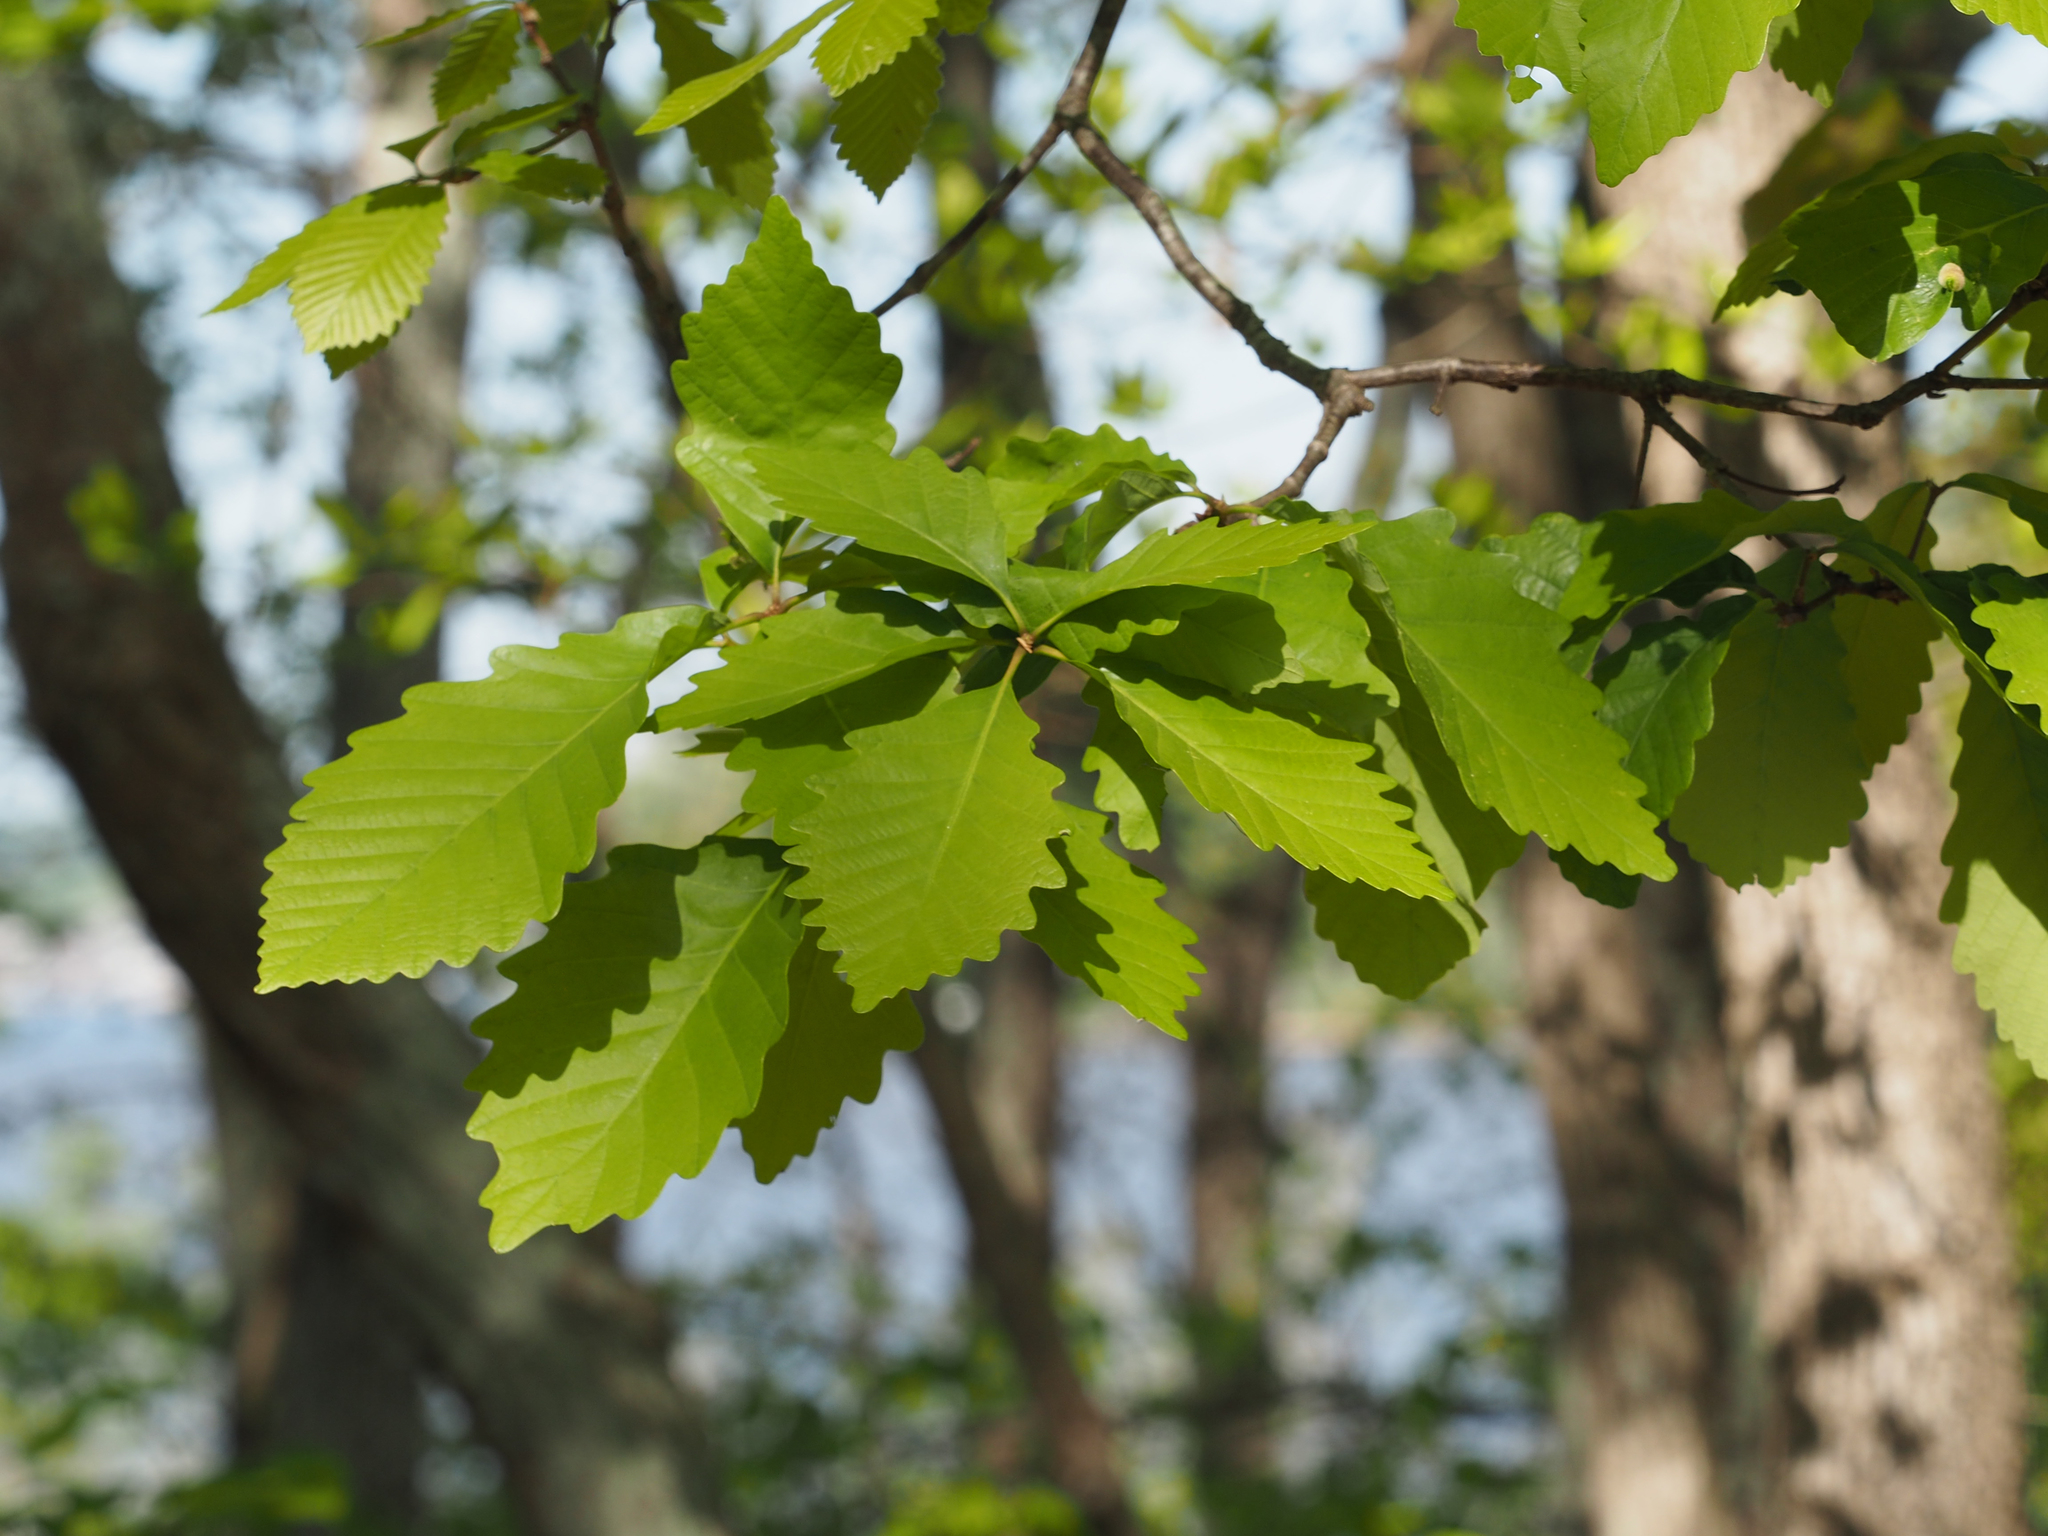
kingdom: Plantae
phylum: Tracheophyta
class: Magnoliopsida
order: Fagales
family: Fagaceae
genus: Quercus
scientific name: Quercus montana
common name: Chestnut oak
